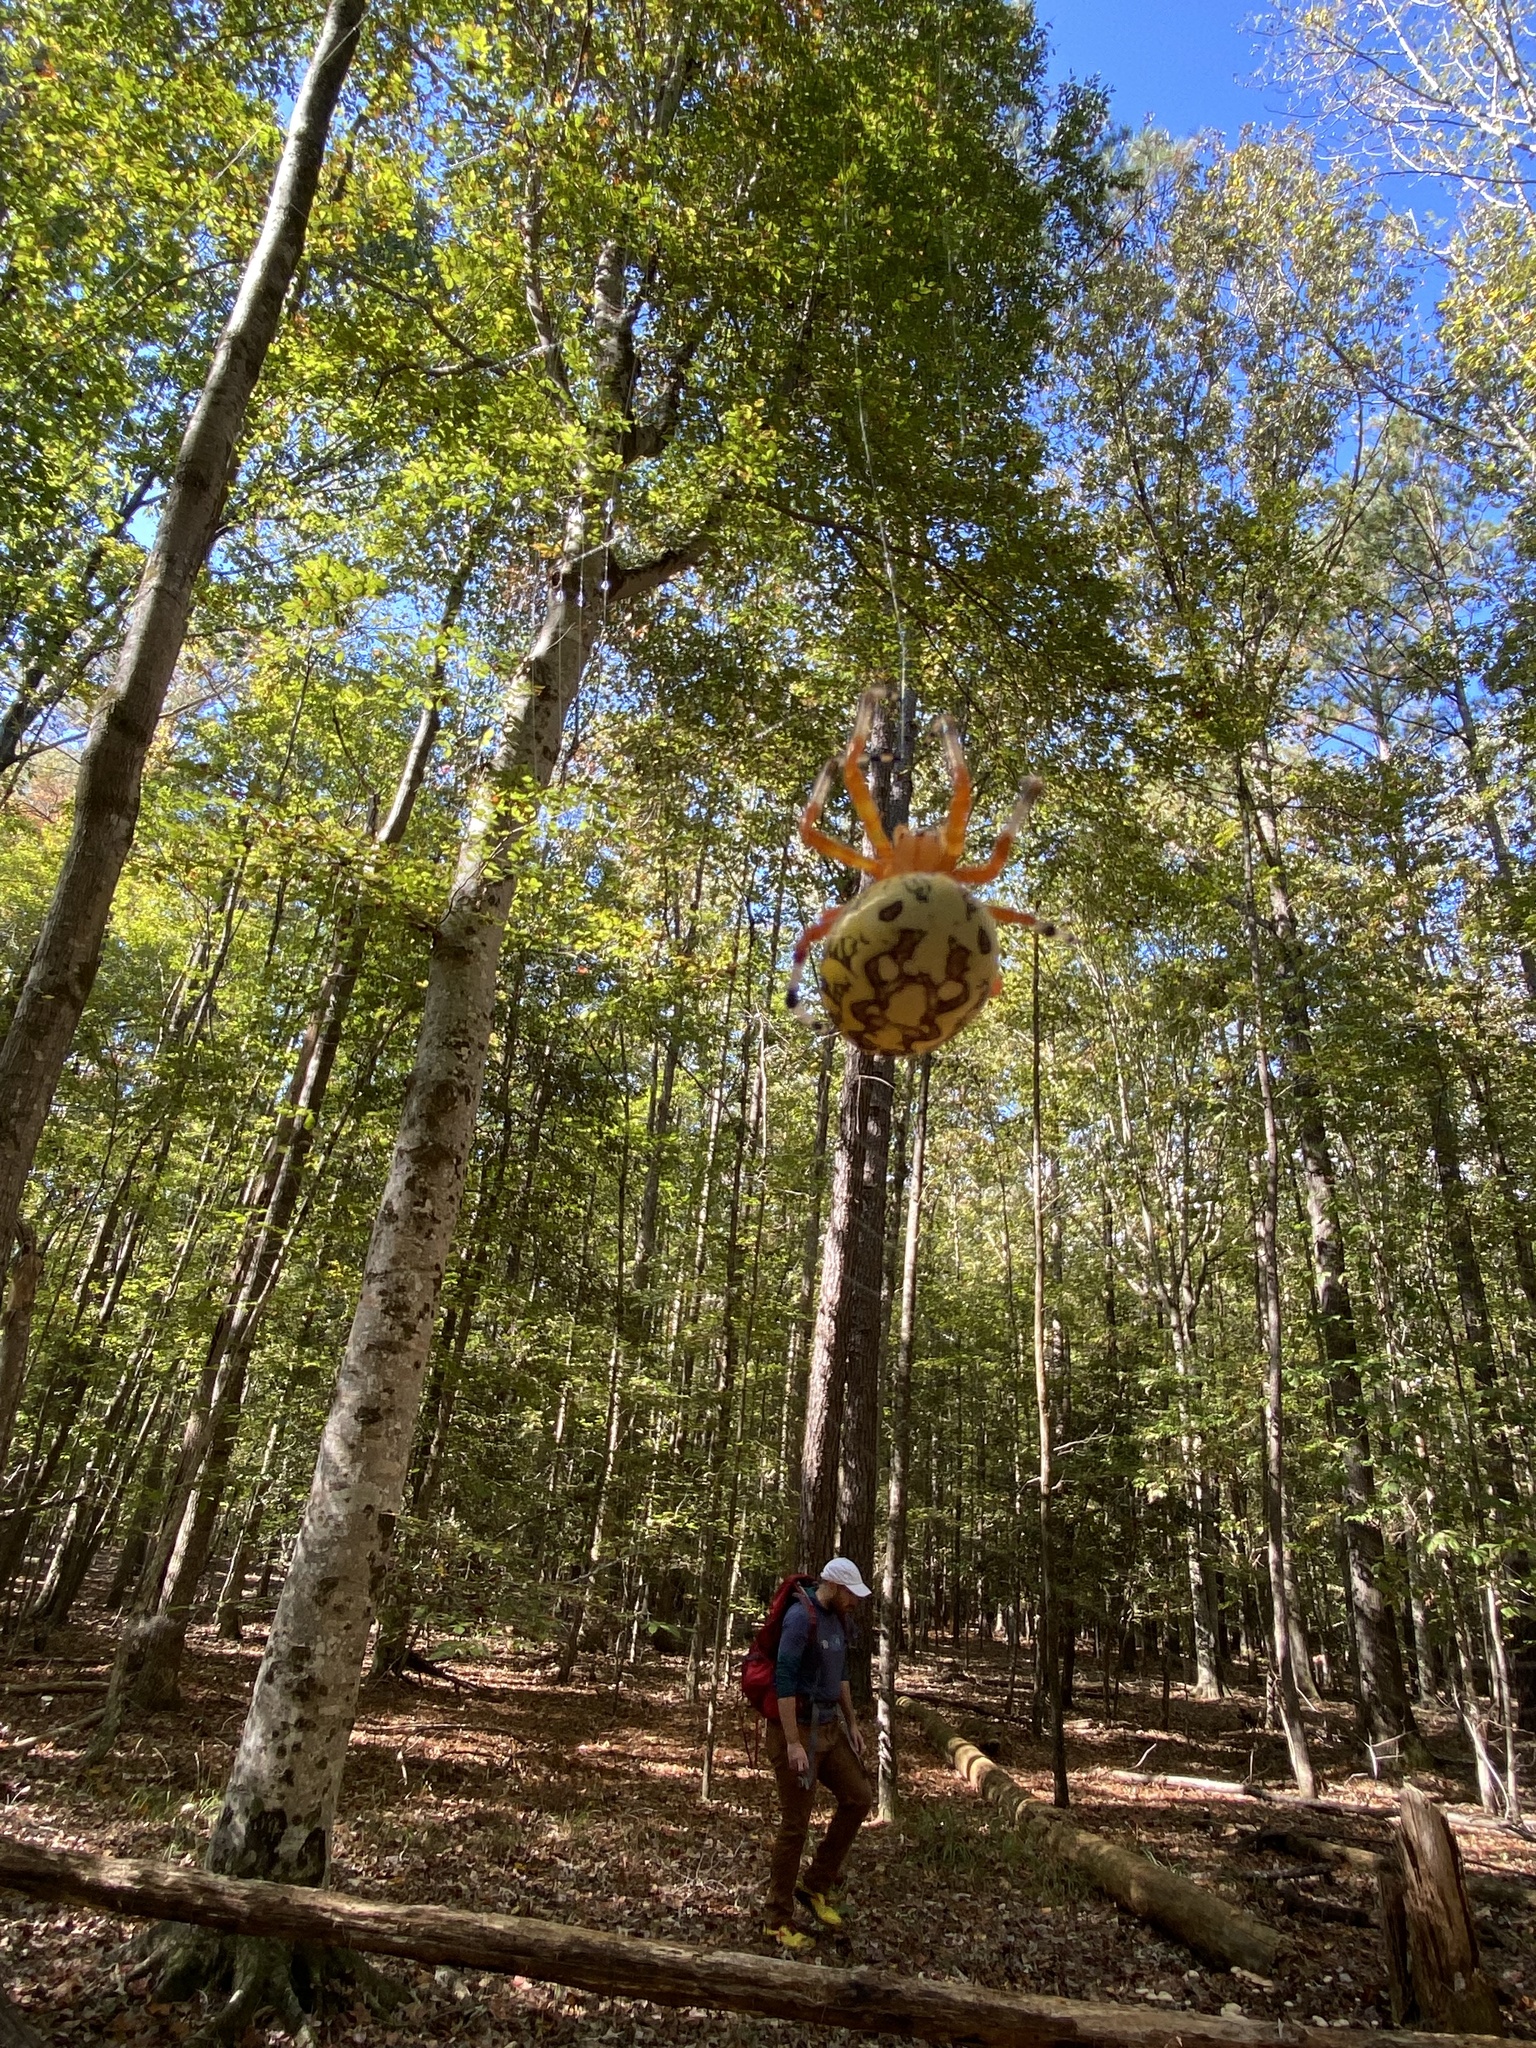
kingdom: Animalia
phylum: Arthropoda
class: Arachnida
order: Araneae
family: Araneidae
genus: Araneus
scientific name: Araneus marmoreus
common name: Marbled orbweaver
